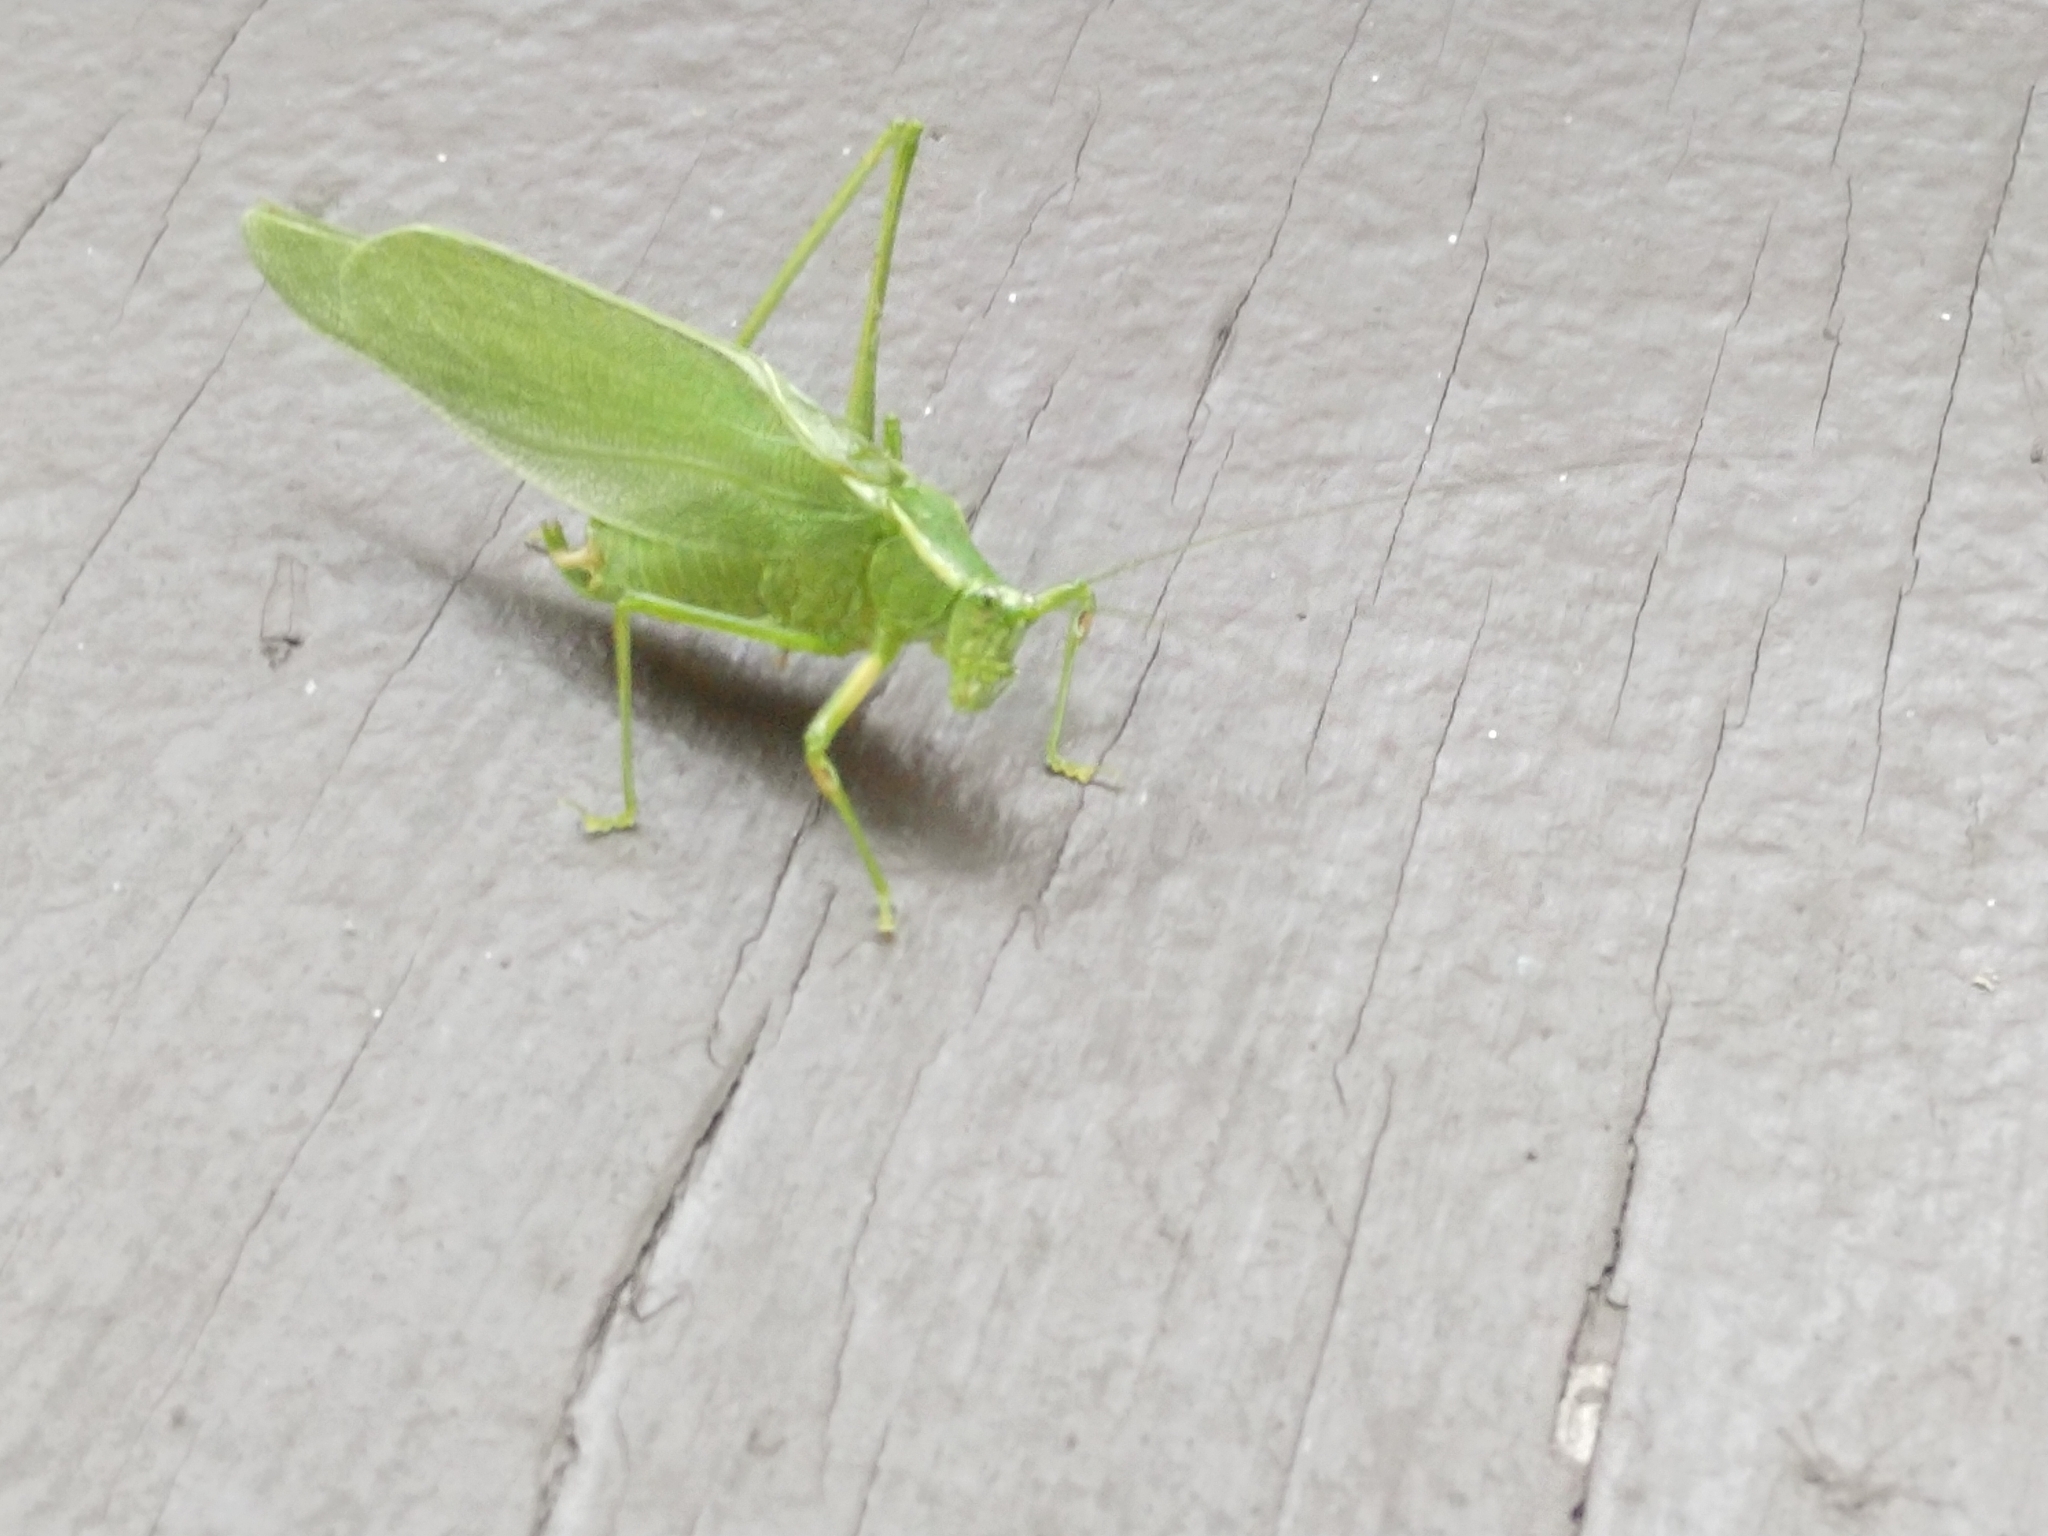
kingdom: Animalia
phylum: Arthropoda
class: Insecta
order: Orthoptera
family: Tettigoniidae
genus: Scudderia
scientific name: Scudderia septentrionalis
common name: Northern bush-katydid
